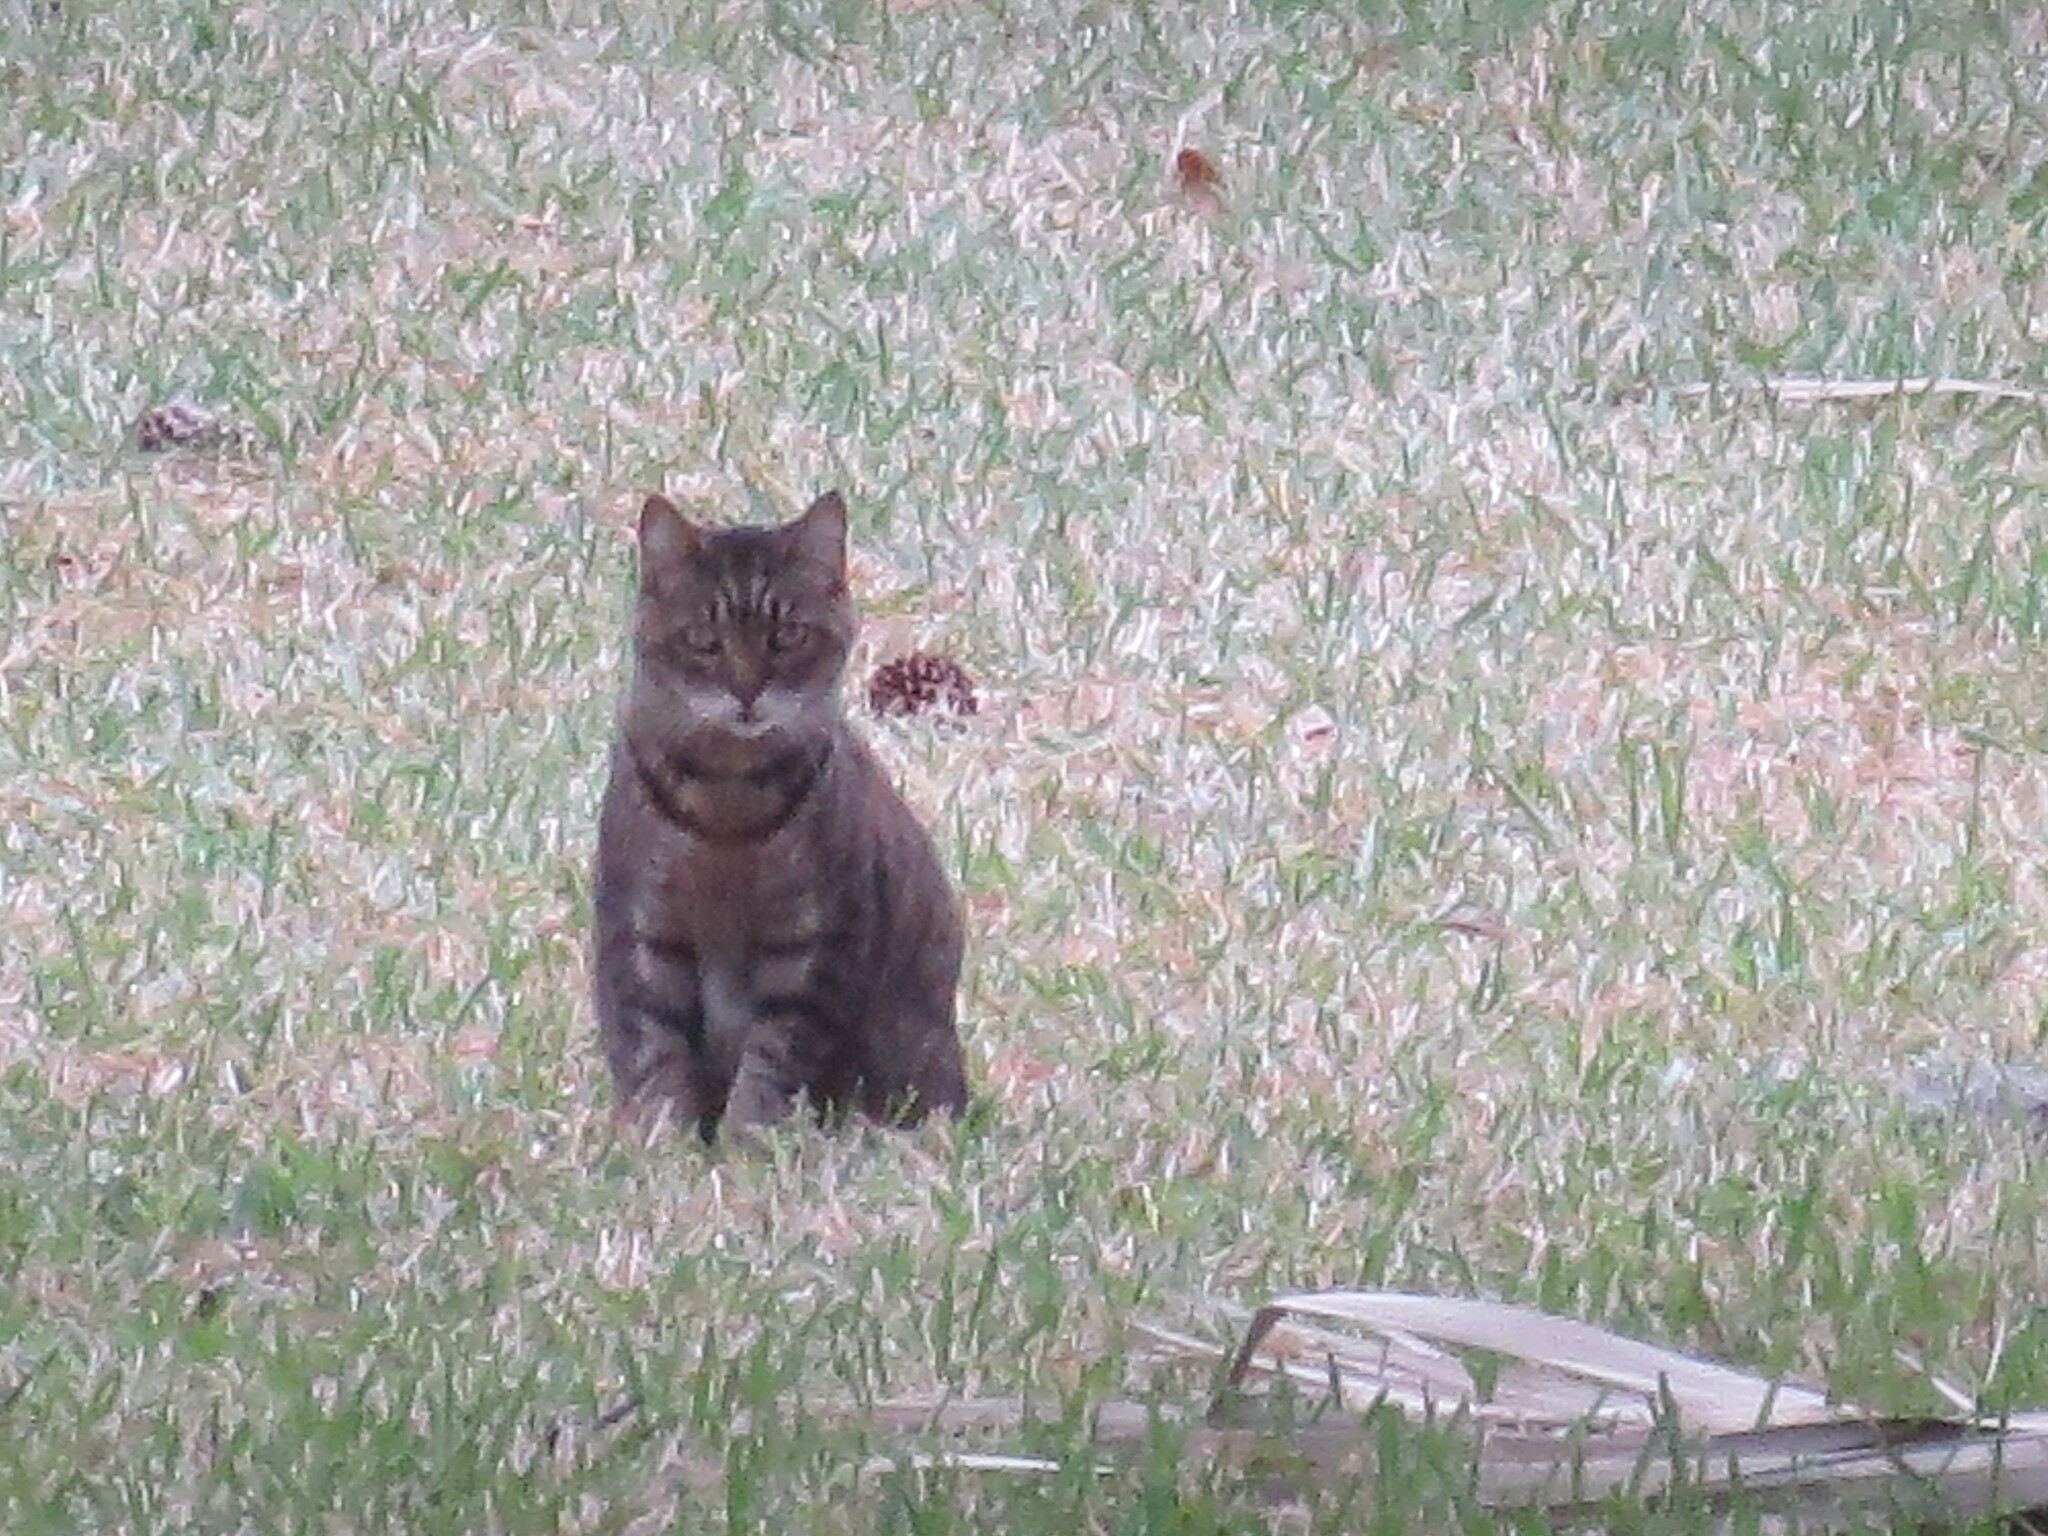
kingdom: Animalia
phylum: Chordata
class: Mammalia
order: Carnivora
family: Felidae
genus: Felis
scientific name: Felis catus
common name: Domestic cat
